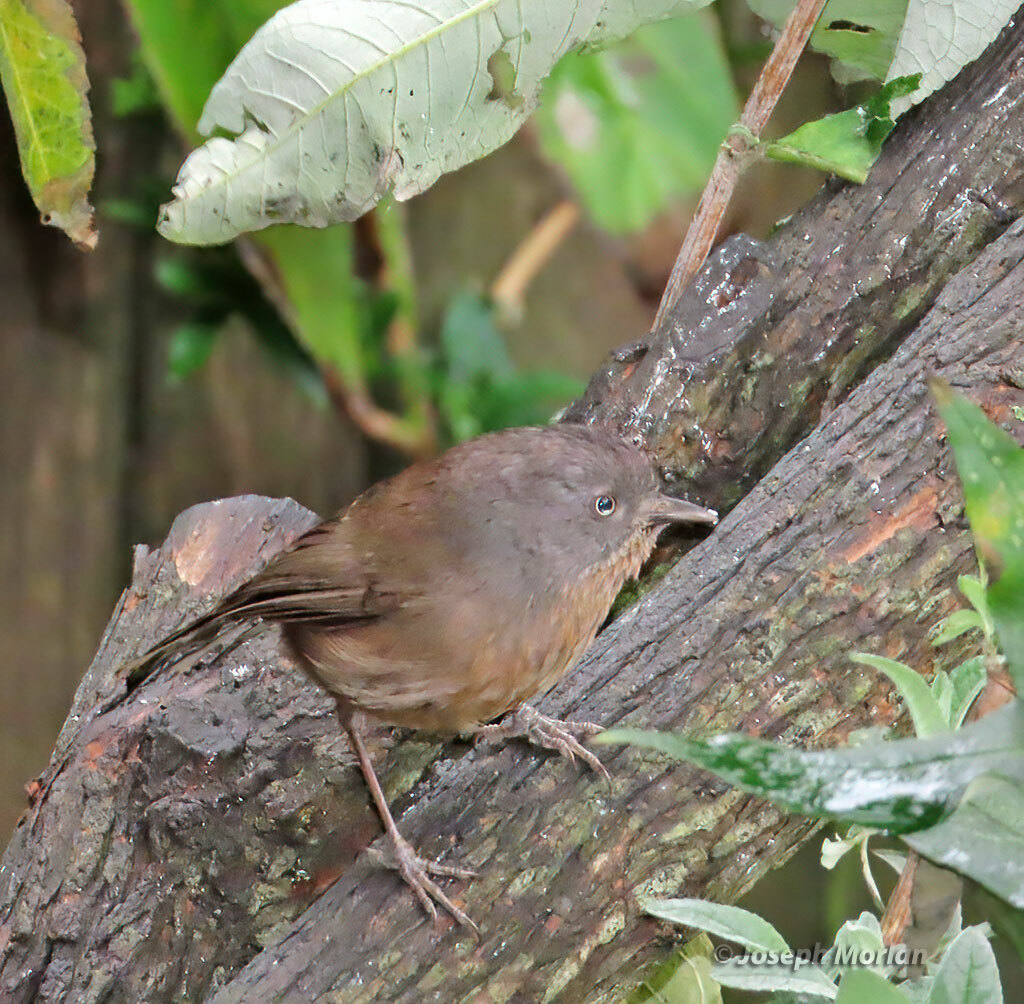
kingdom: Animalia
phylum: Chordata
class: Aves
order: Passeriformes
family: Sylviidae
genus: Chamaea
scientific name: Chamaea fasciata
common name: Wrentit
